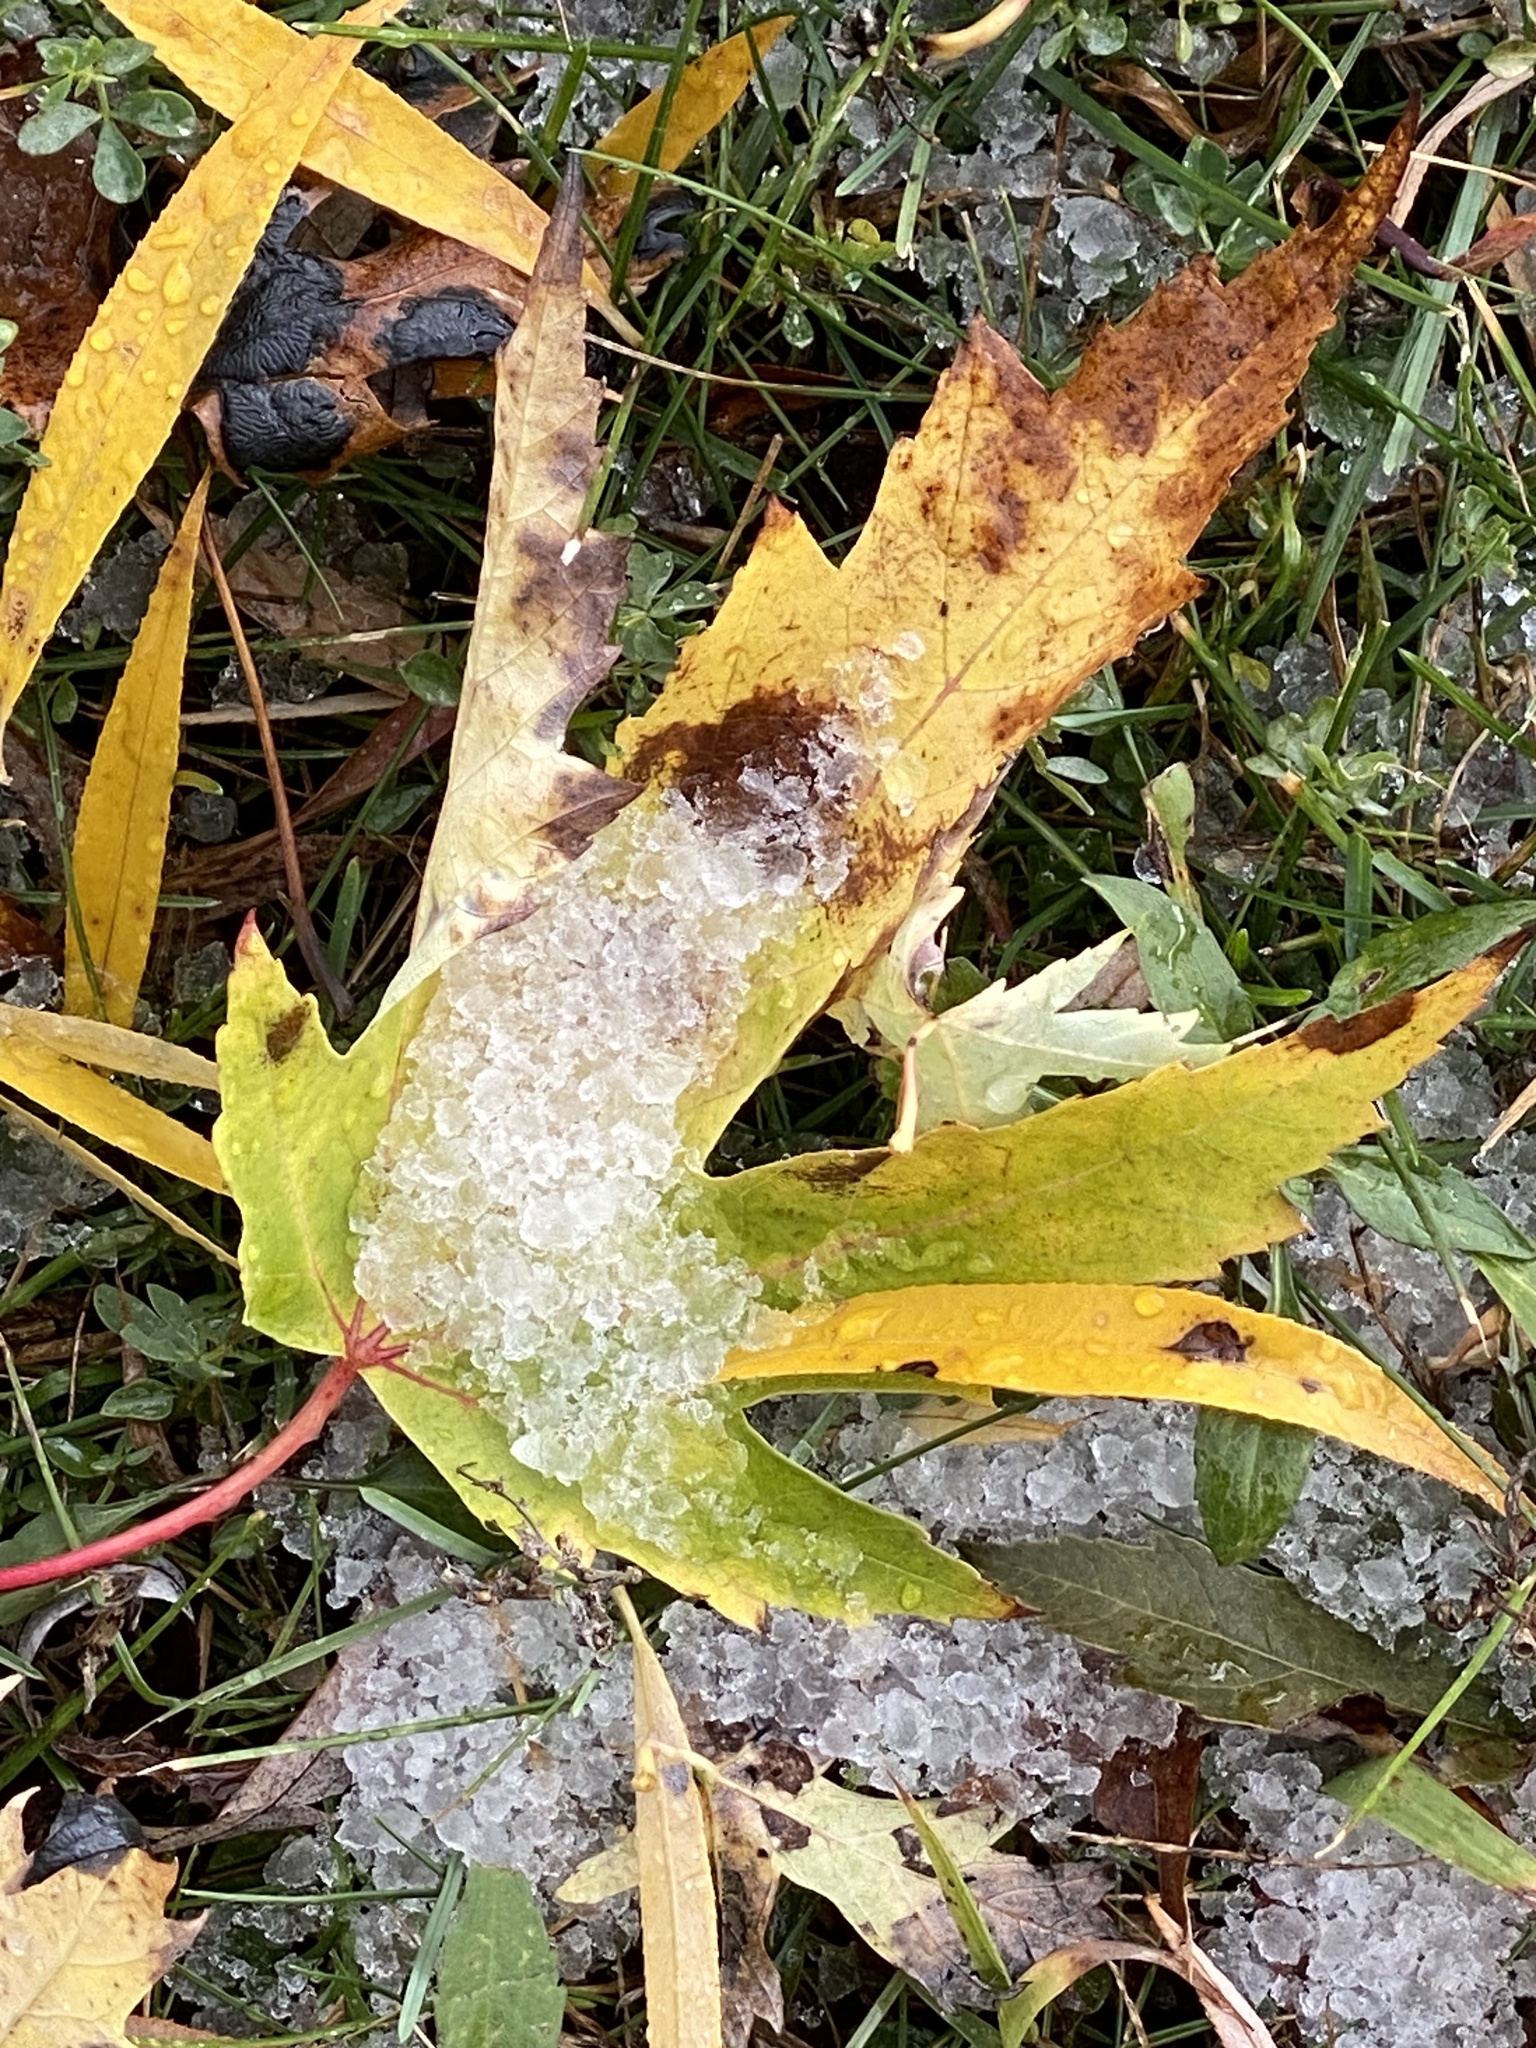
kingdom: Plantae
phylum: Tracheophyta
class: Magnoliopsida
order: Sapindales
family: Sapindaceae
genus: Acer
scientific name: Acer saccharinum
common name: Silver maple
